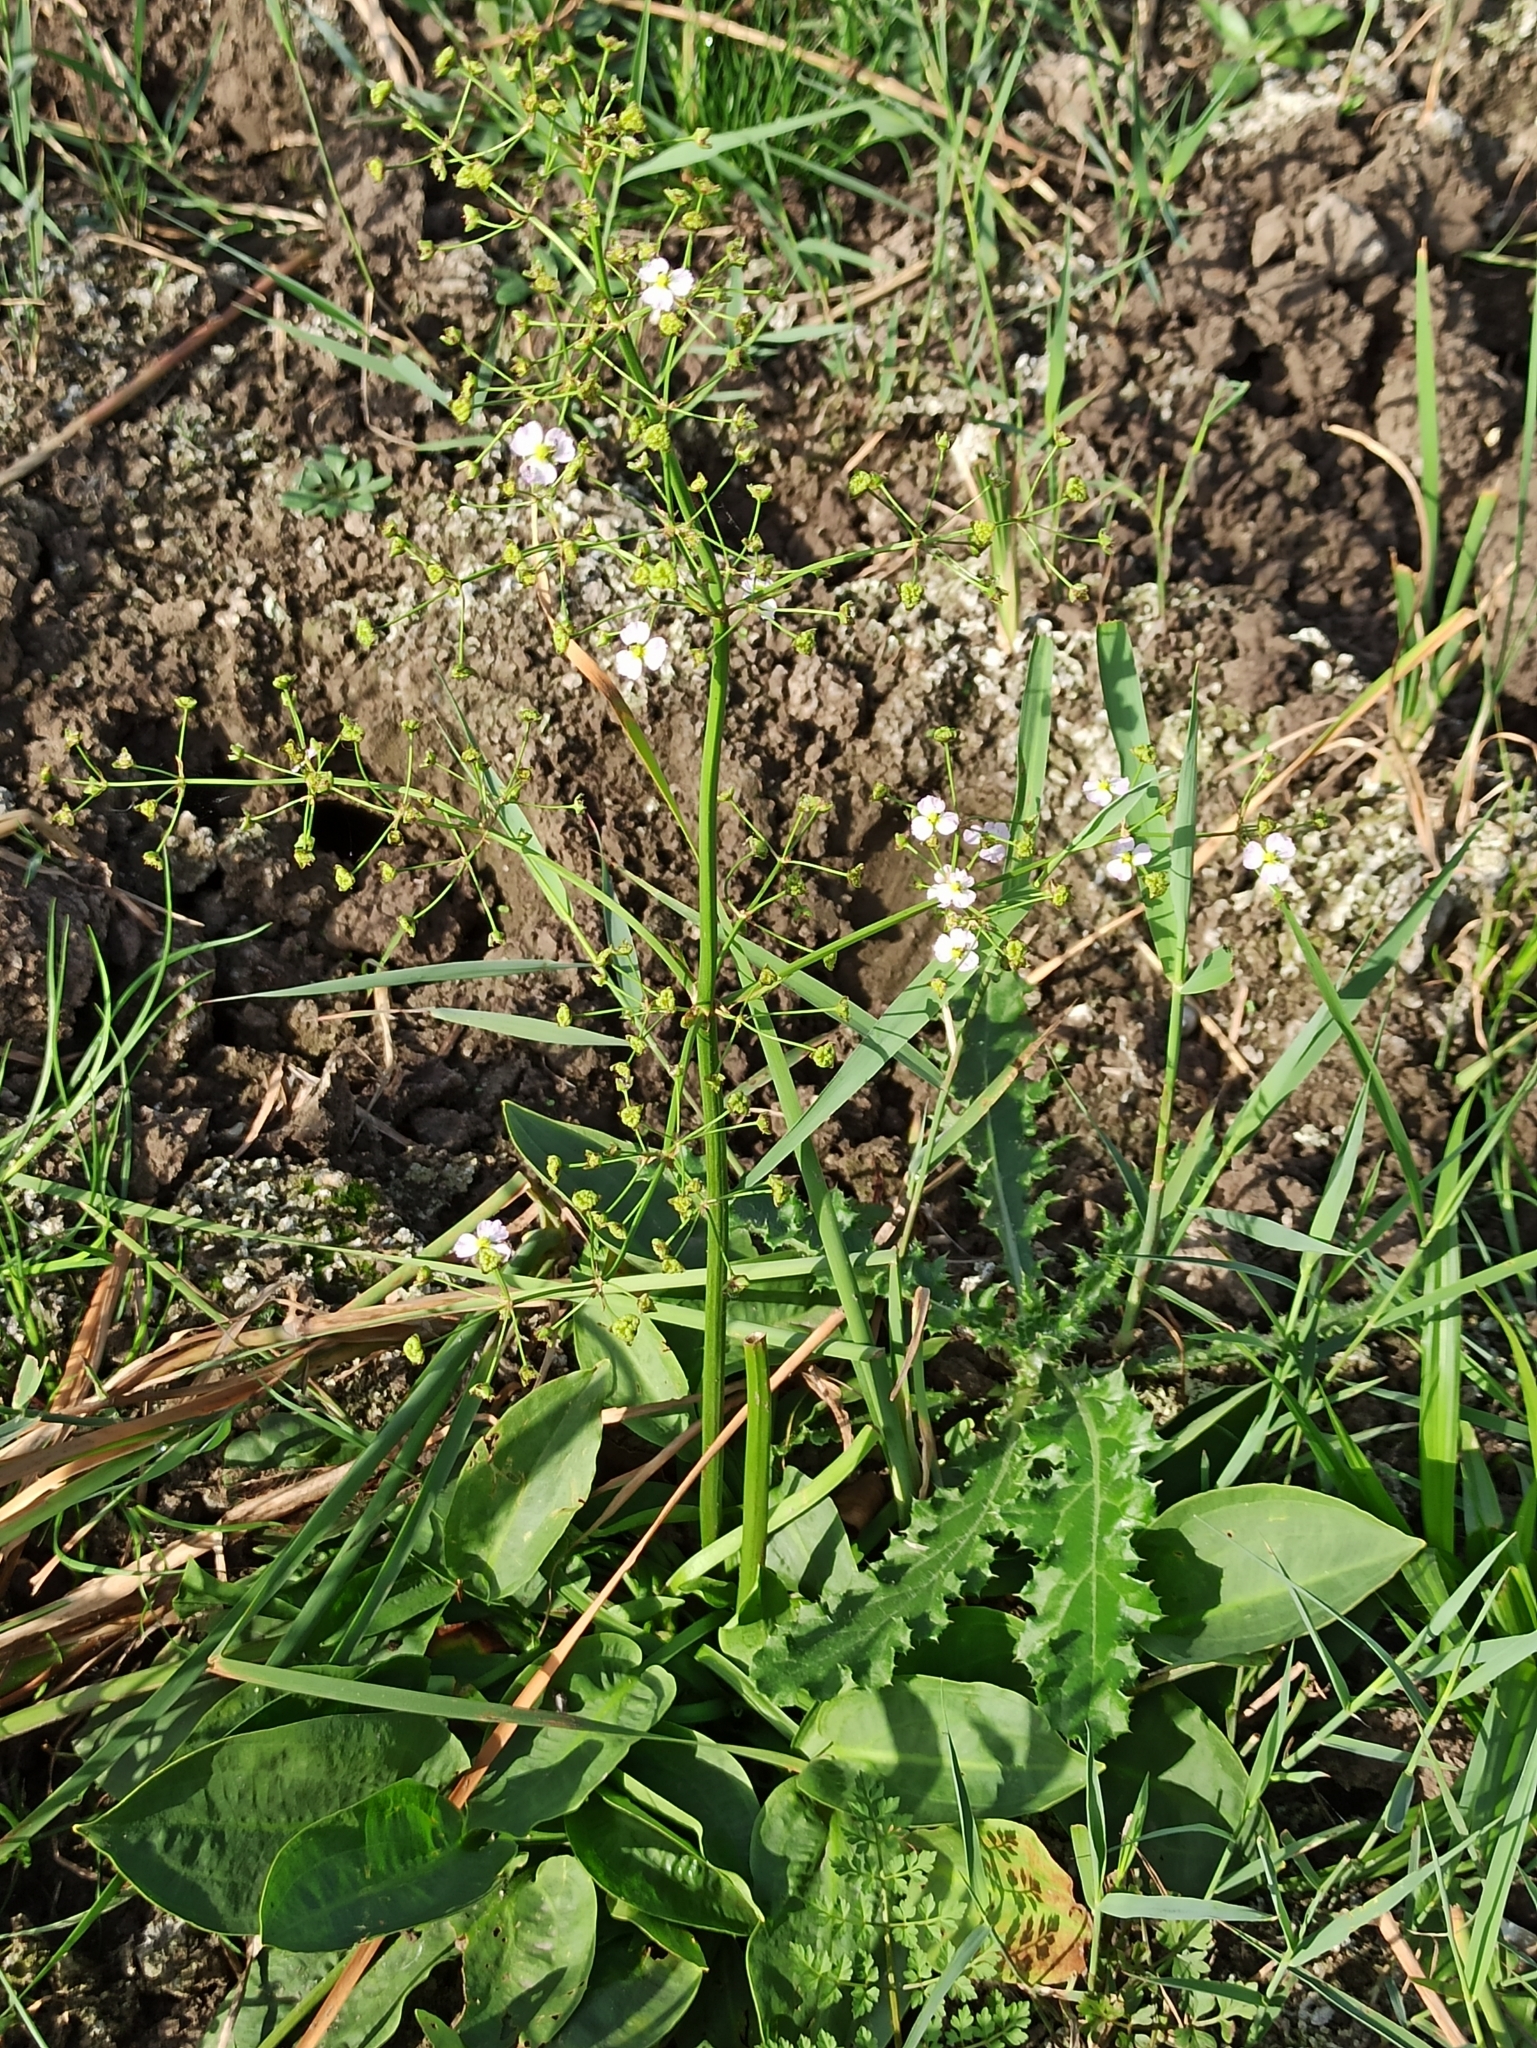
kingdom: Plantae
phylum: Tracheophyta
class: Liliopsida
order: Alismatales
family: Alismataceae
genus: Alisma
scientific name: Alisma plantago-aquatica
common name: Water-plantain
